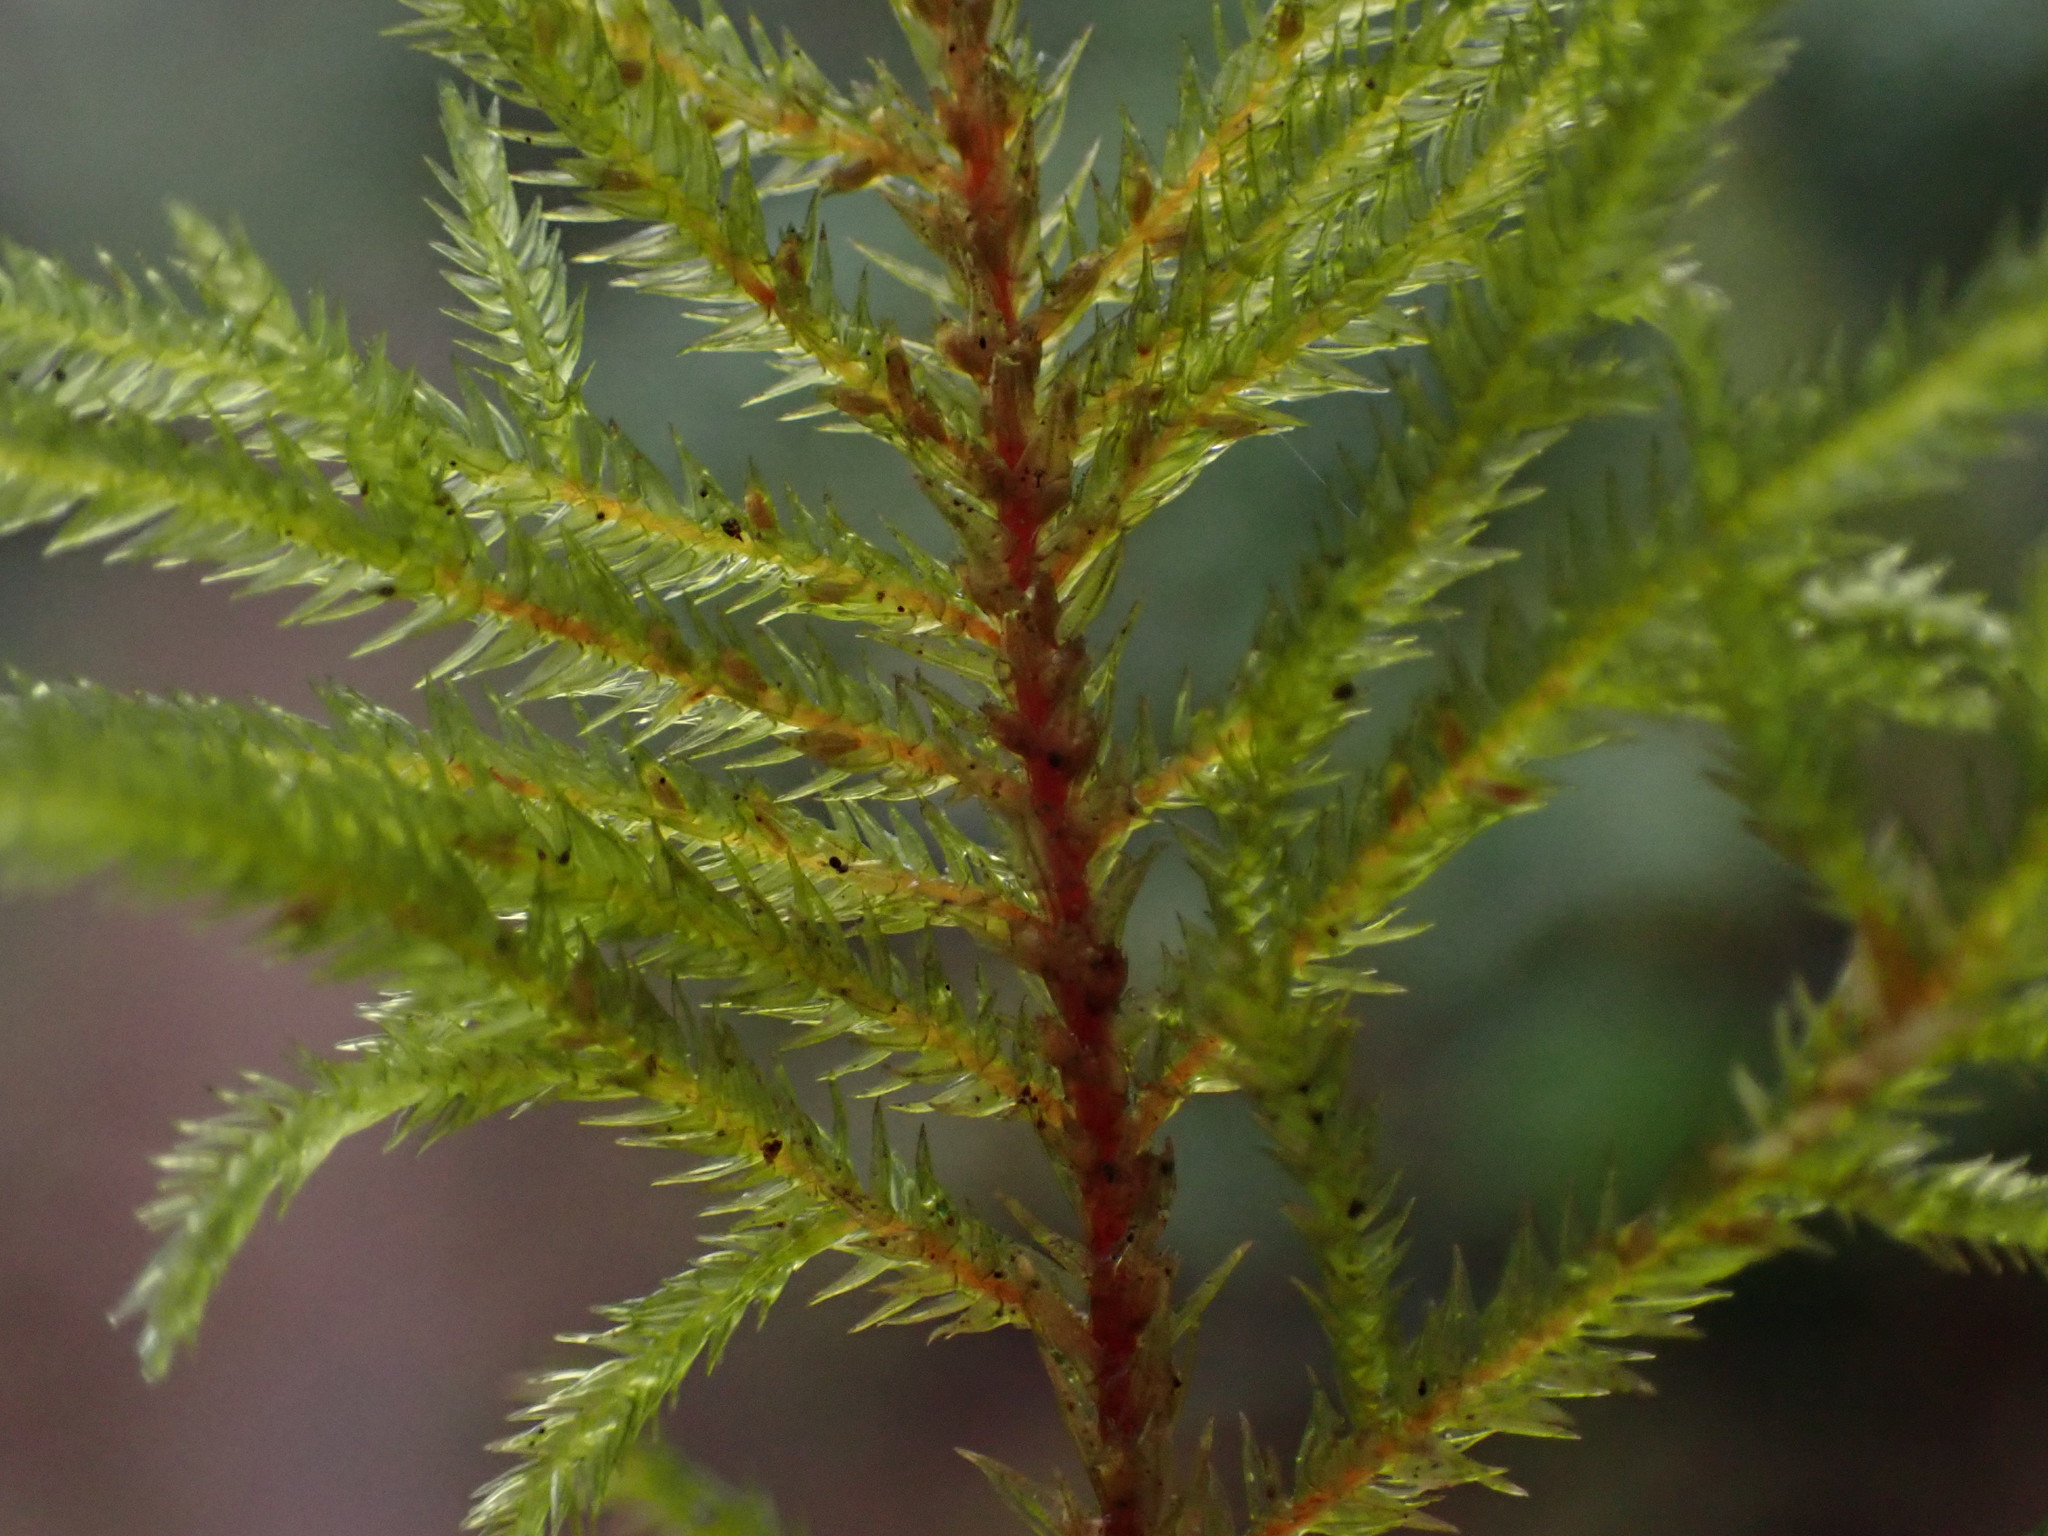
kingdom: Plantae
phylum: Bryophyta
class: Bryopsida
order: Hypnales
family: Cryphaeaceae
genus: Dendroalsia
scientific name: Dendroalsia abietina
